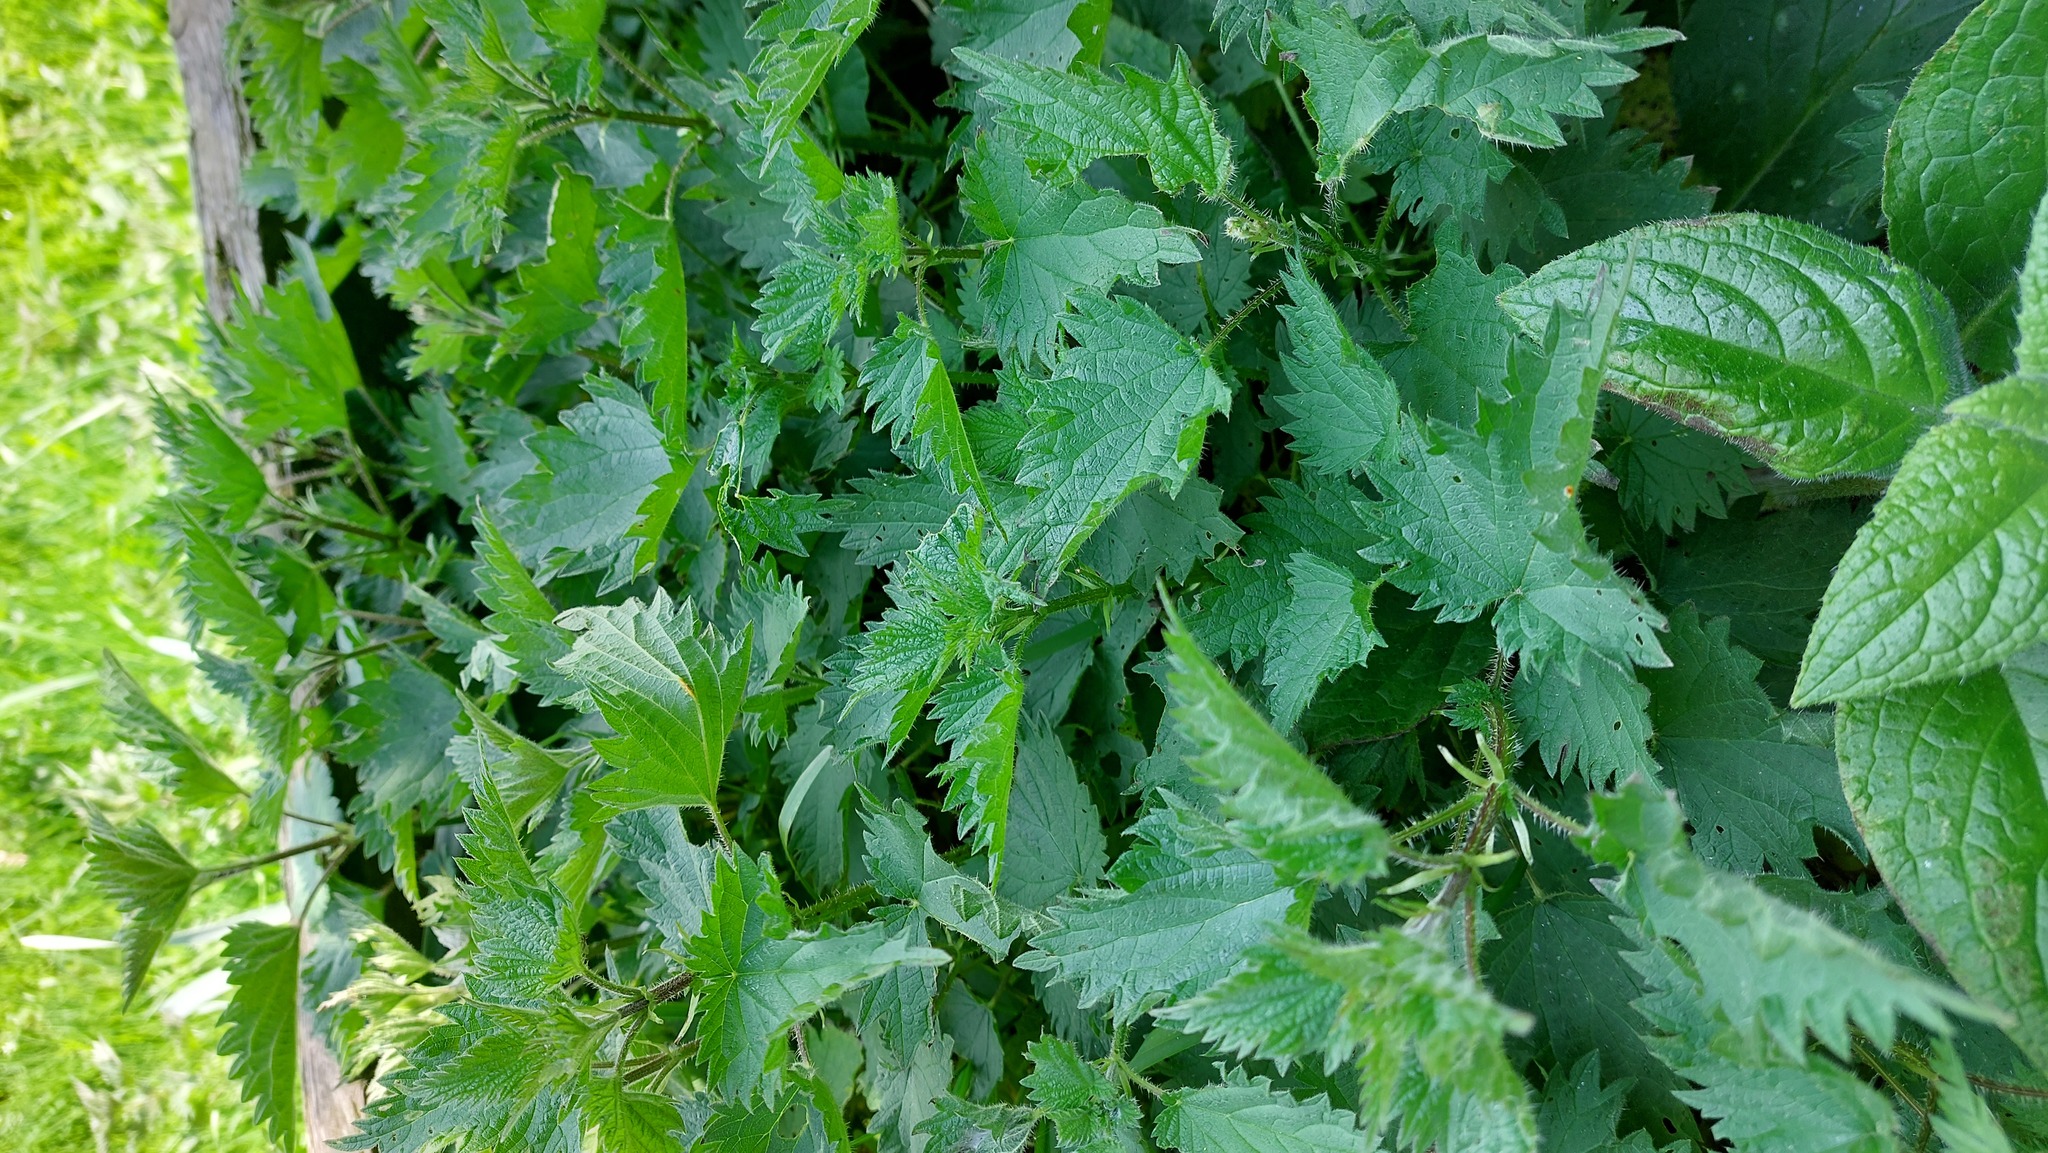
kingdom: Plantae
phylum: Tracheophyta
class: Magnoliopsida
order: Rosales
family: Urticaceae
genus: Urtica
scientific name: Urtica dioica
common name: Common nettle
